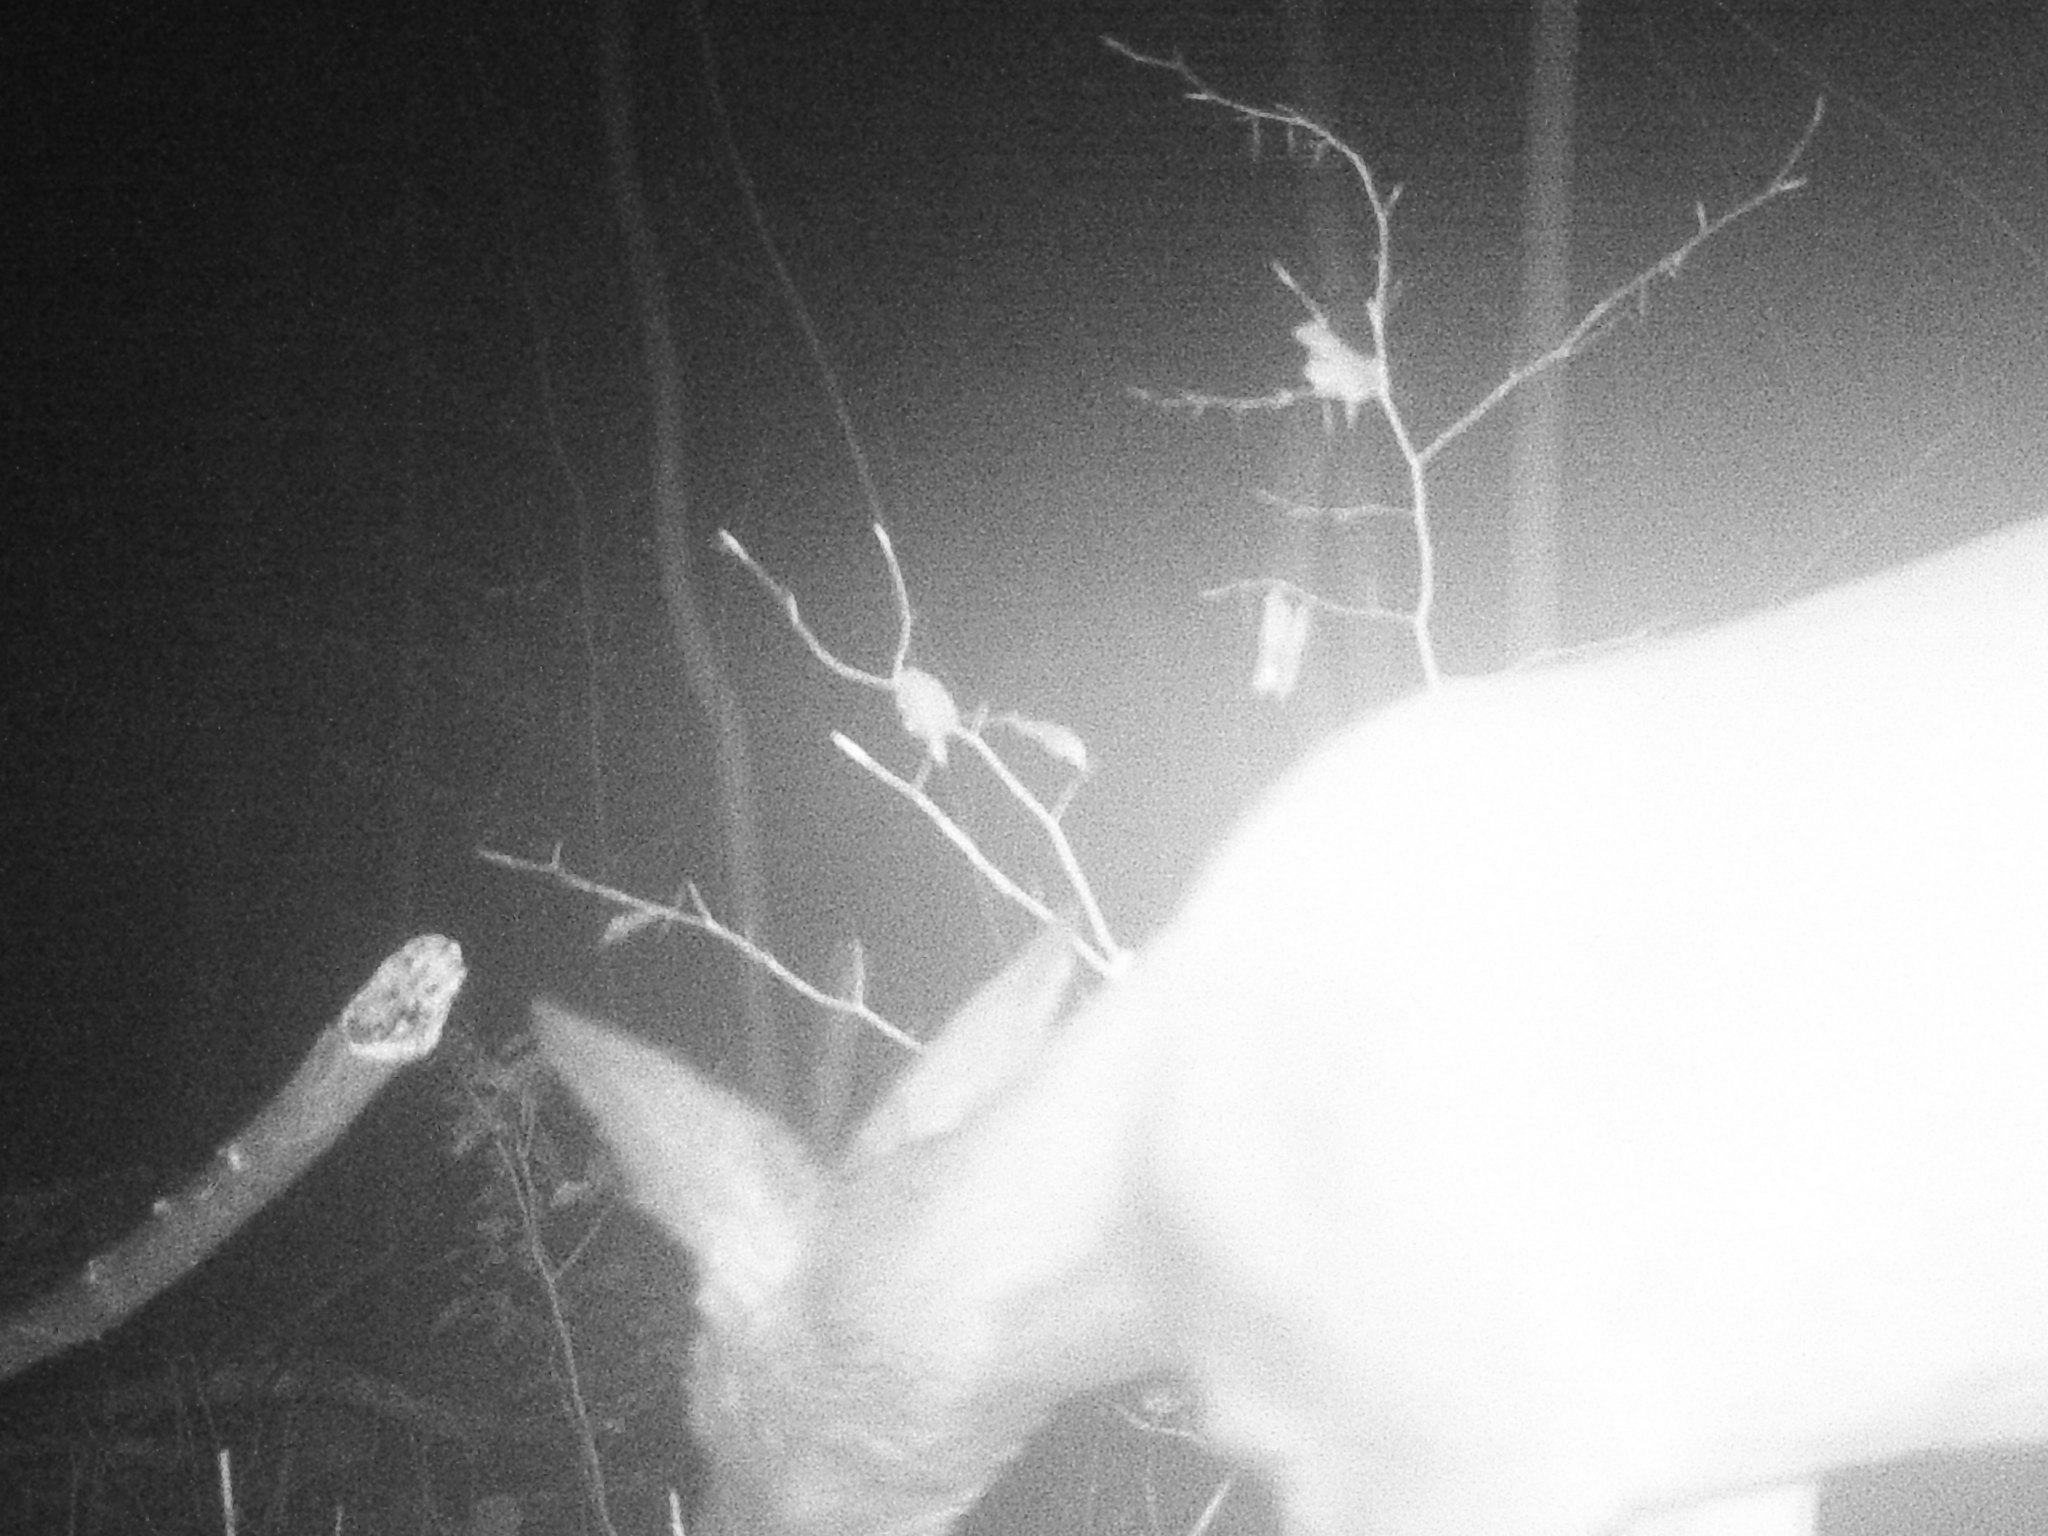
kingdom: Animalia
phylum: Chordata
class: Mammalia
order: Artiodactyla
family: Cervidae
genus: Capreolus
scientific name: Capreolus capreolus
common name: Western roe deer
